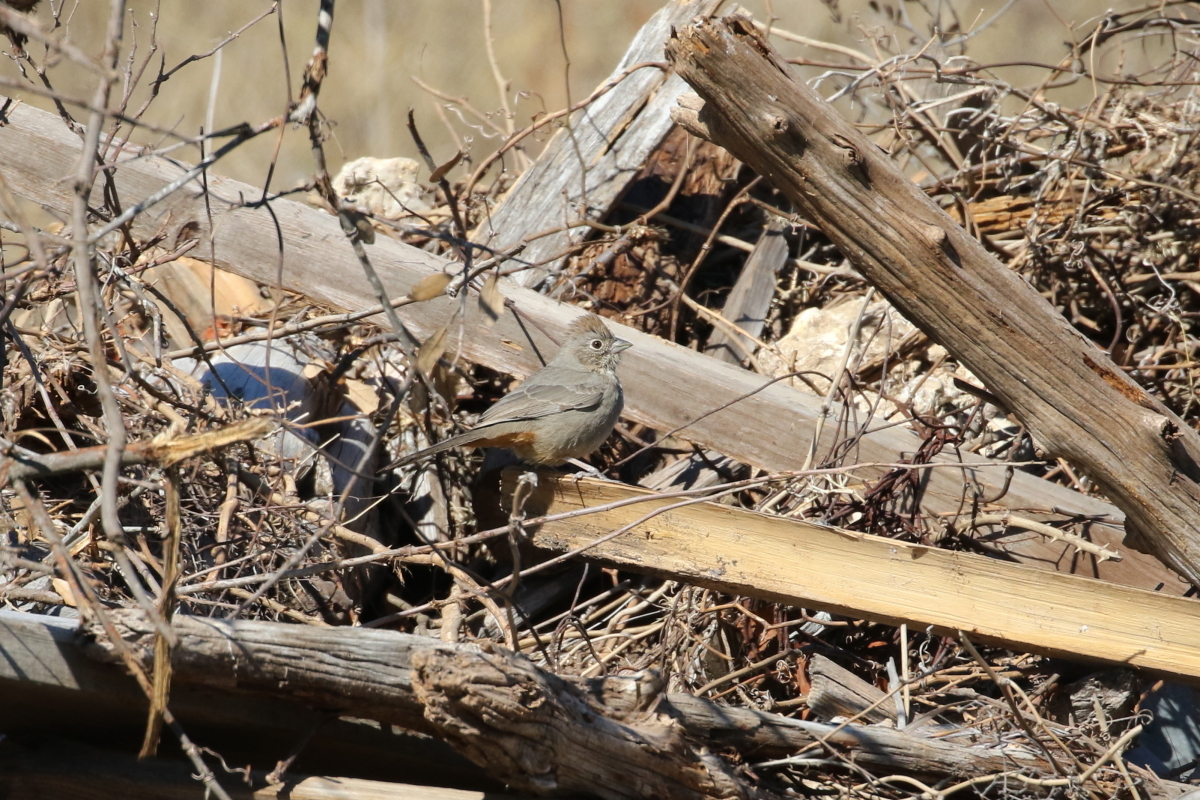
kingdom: Animalia
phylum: Chordata
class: Aves
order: Passeriformes
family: Passerellidae
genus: Melozone
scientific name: Melozone fusca
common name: Canyon towhee
